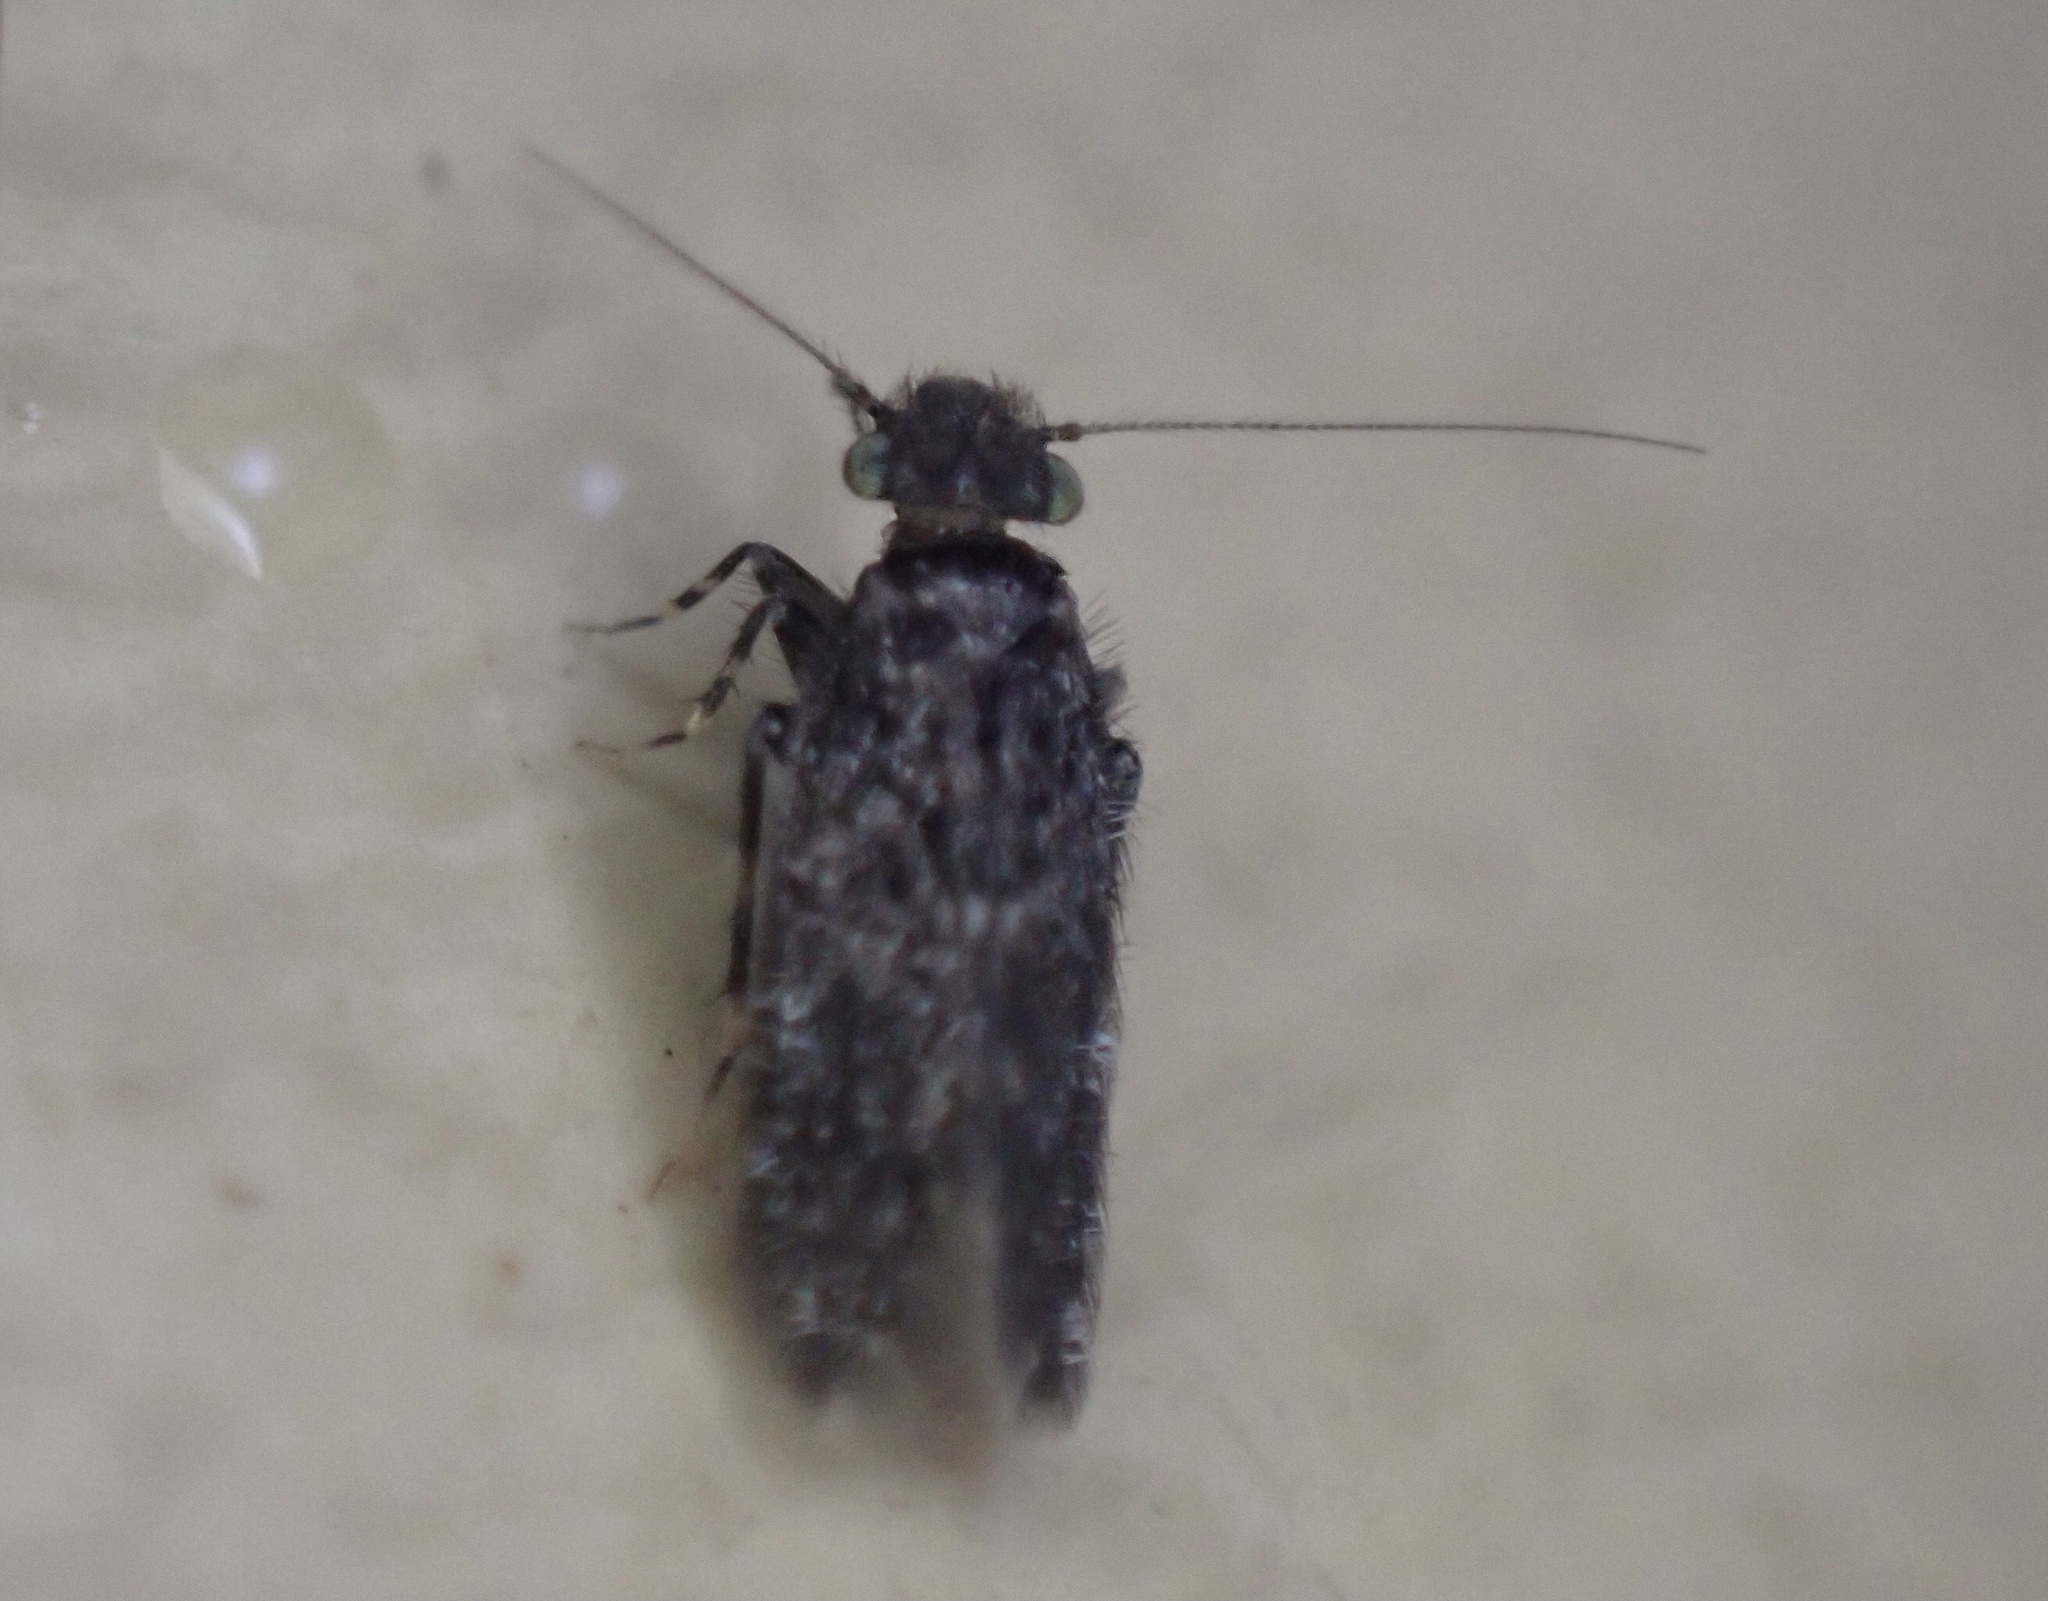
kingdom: Animalia
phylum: Arthropoda
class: Insecta
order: Psocodea
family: Lepidopsocidae
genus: Echmepteryx
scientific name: Echmepteryx hageni
